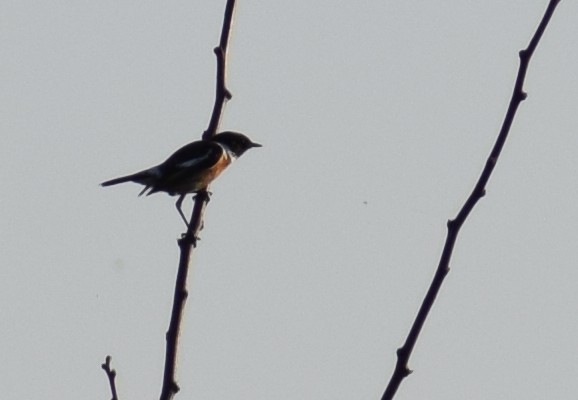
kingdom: Animalia
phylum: Chordata
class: Aves
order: Passeriformes
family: Muscicapidae
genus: Saxicola
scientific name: Saxicola rubicola
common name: European stonechat
